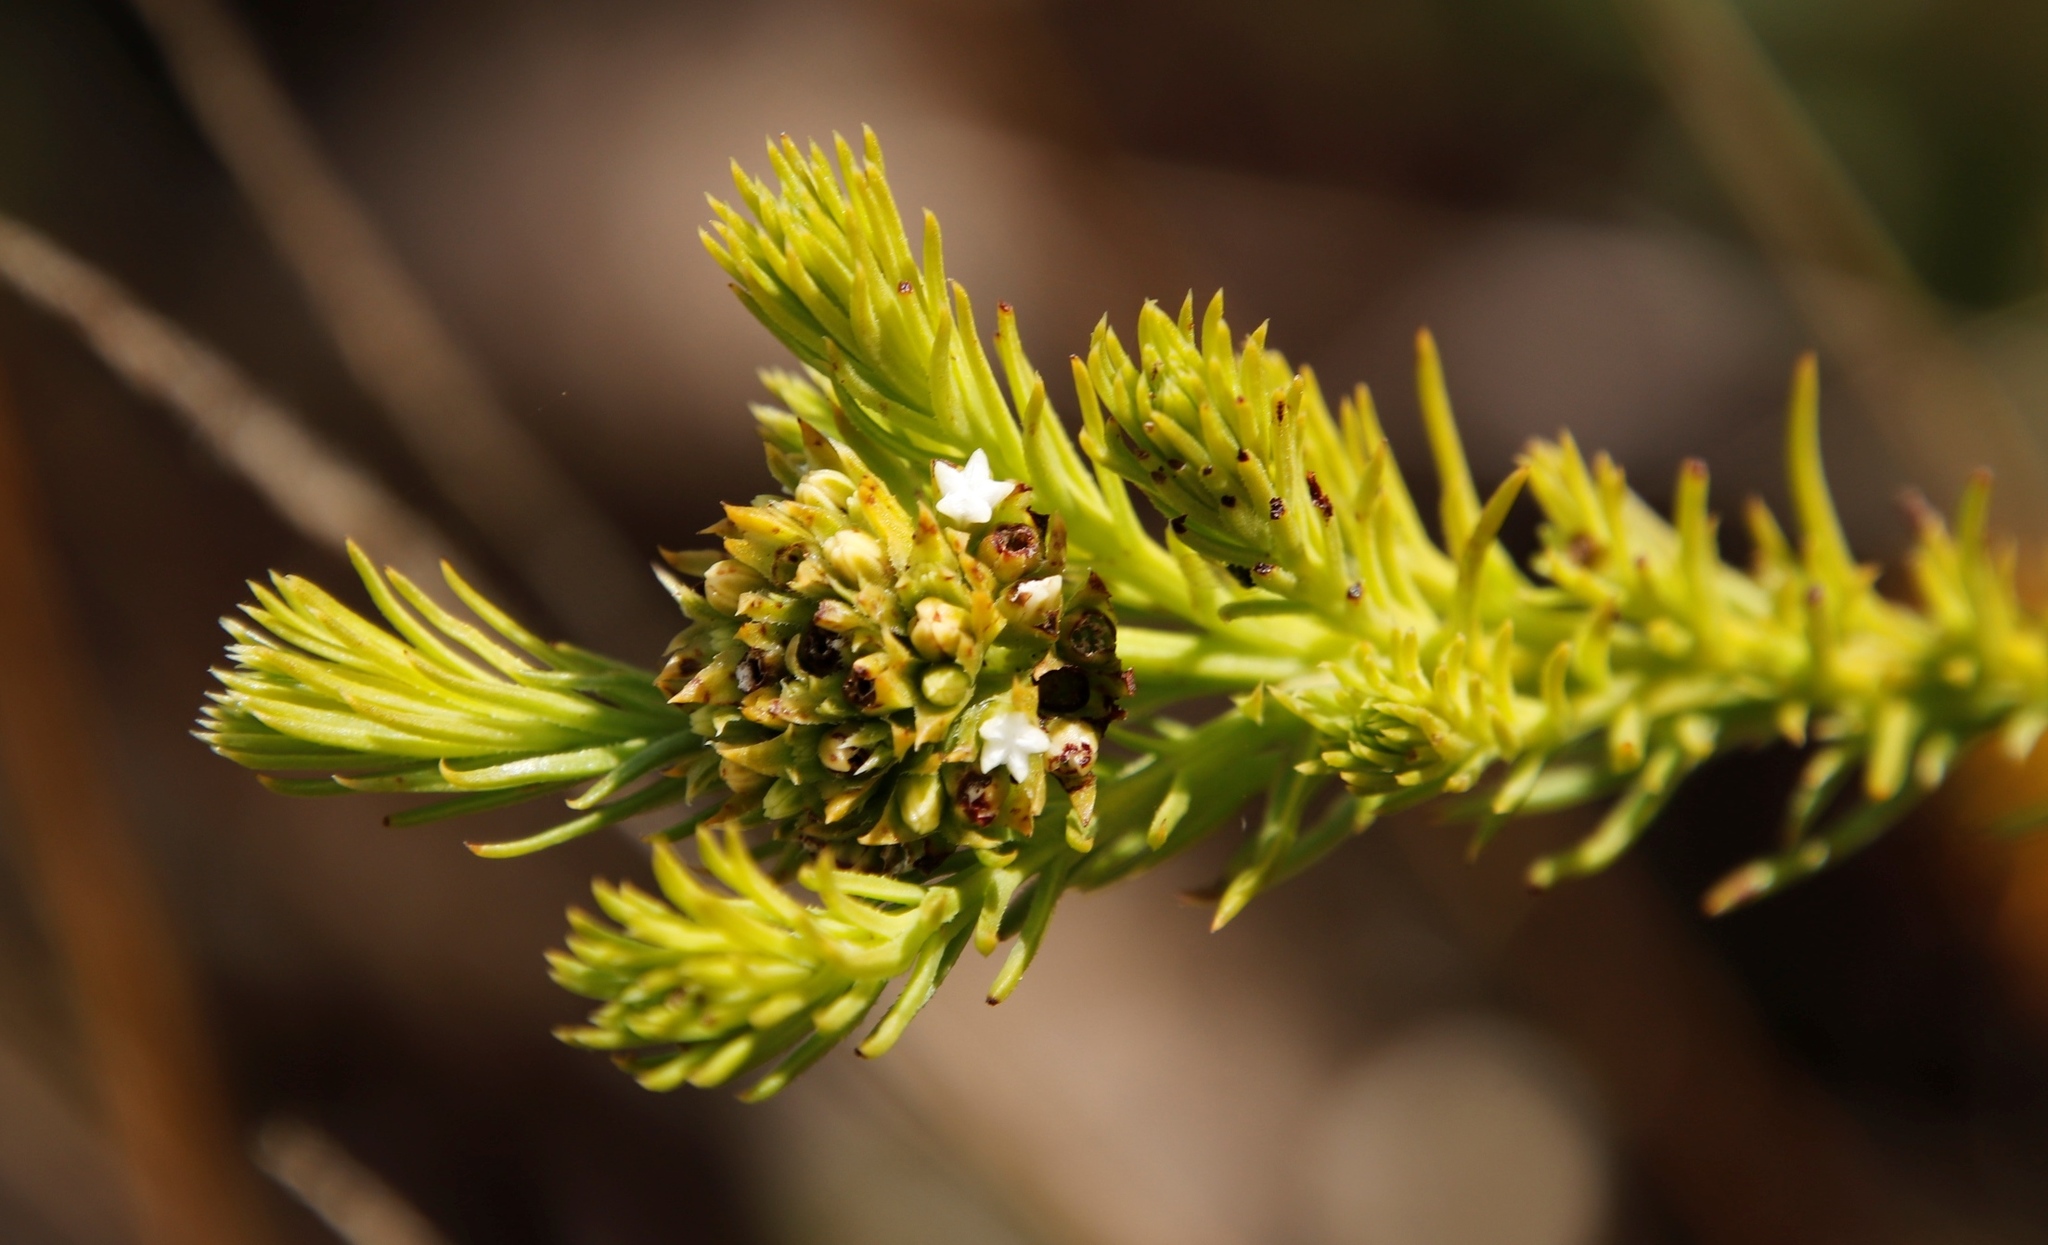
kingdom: Plantae
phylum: Tracheophyta
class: Magnoliopsida
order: Santalales
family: Thesiaceae
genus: Thesium
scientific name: Thesium scabrum
